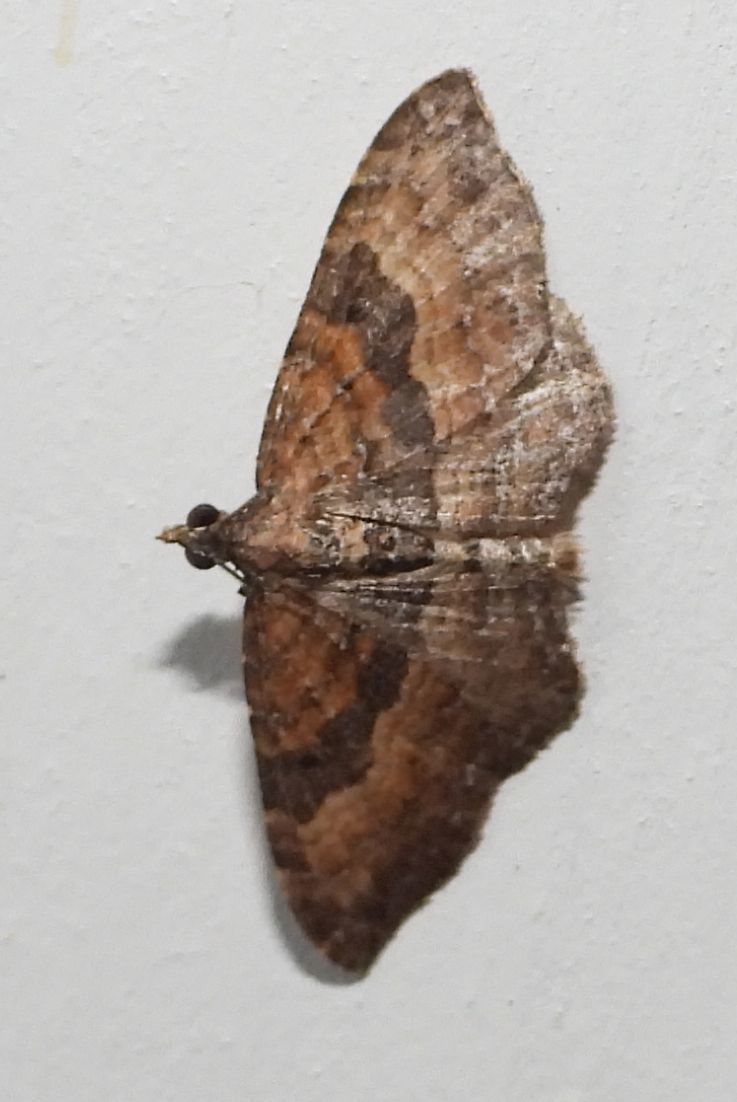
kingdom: Animalia
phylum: Arthropoda
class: Insecta
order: Lepidoptera
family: Geometridae
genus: Orthonama
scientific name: Orthonama obstipata
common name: The gem
